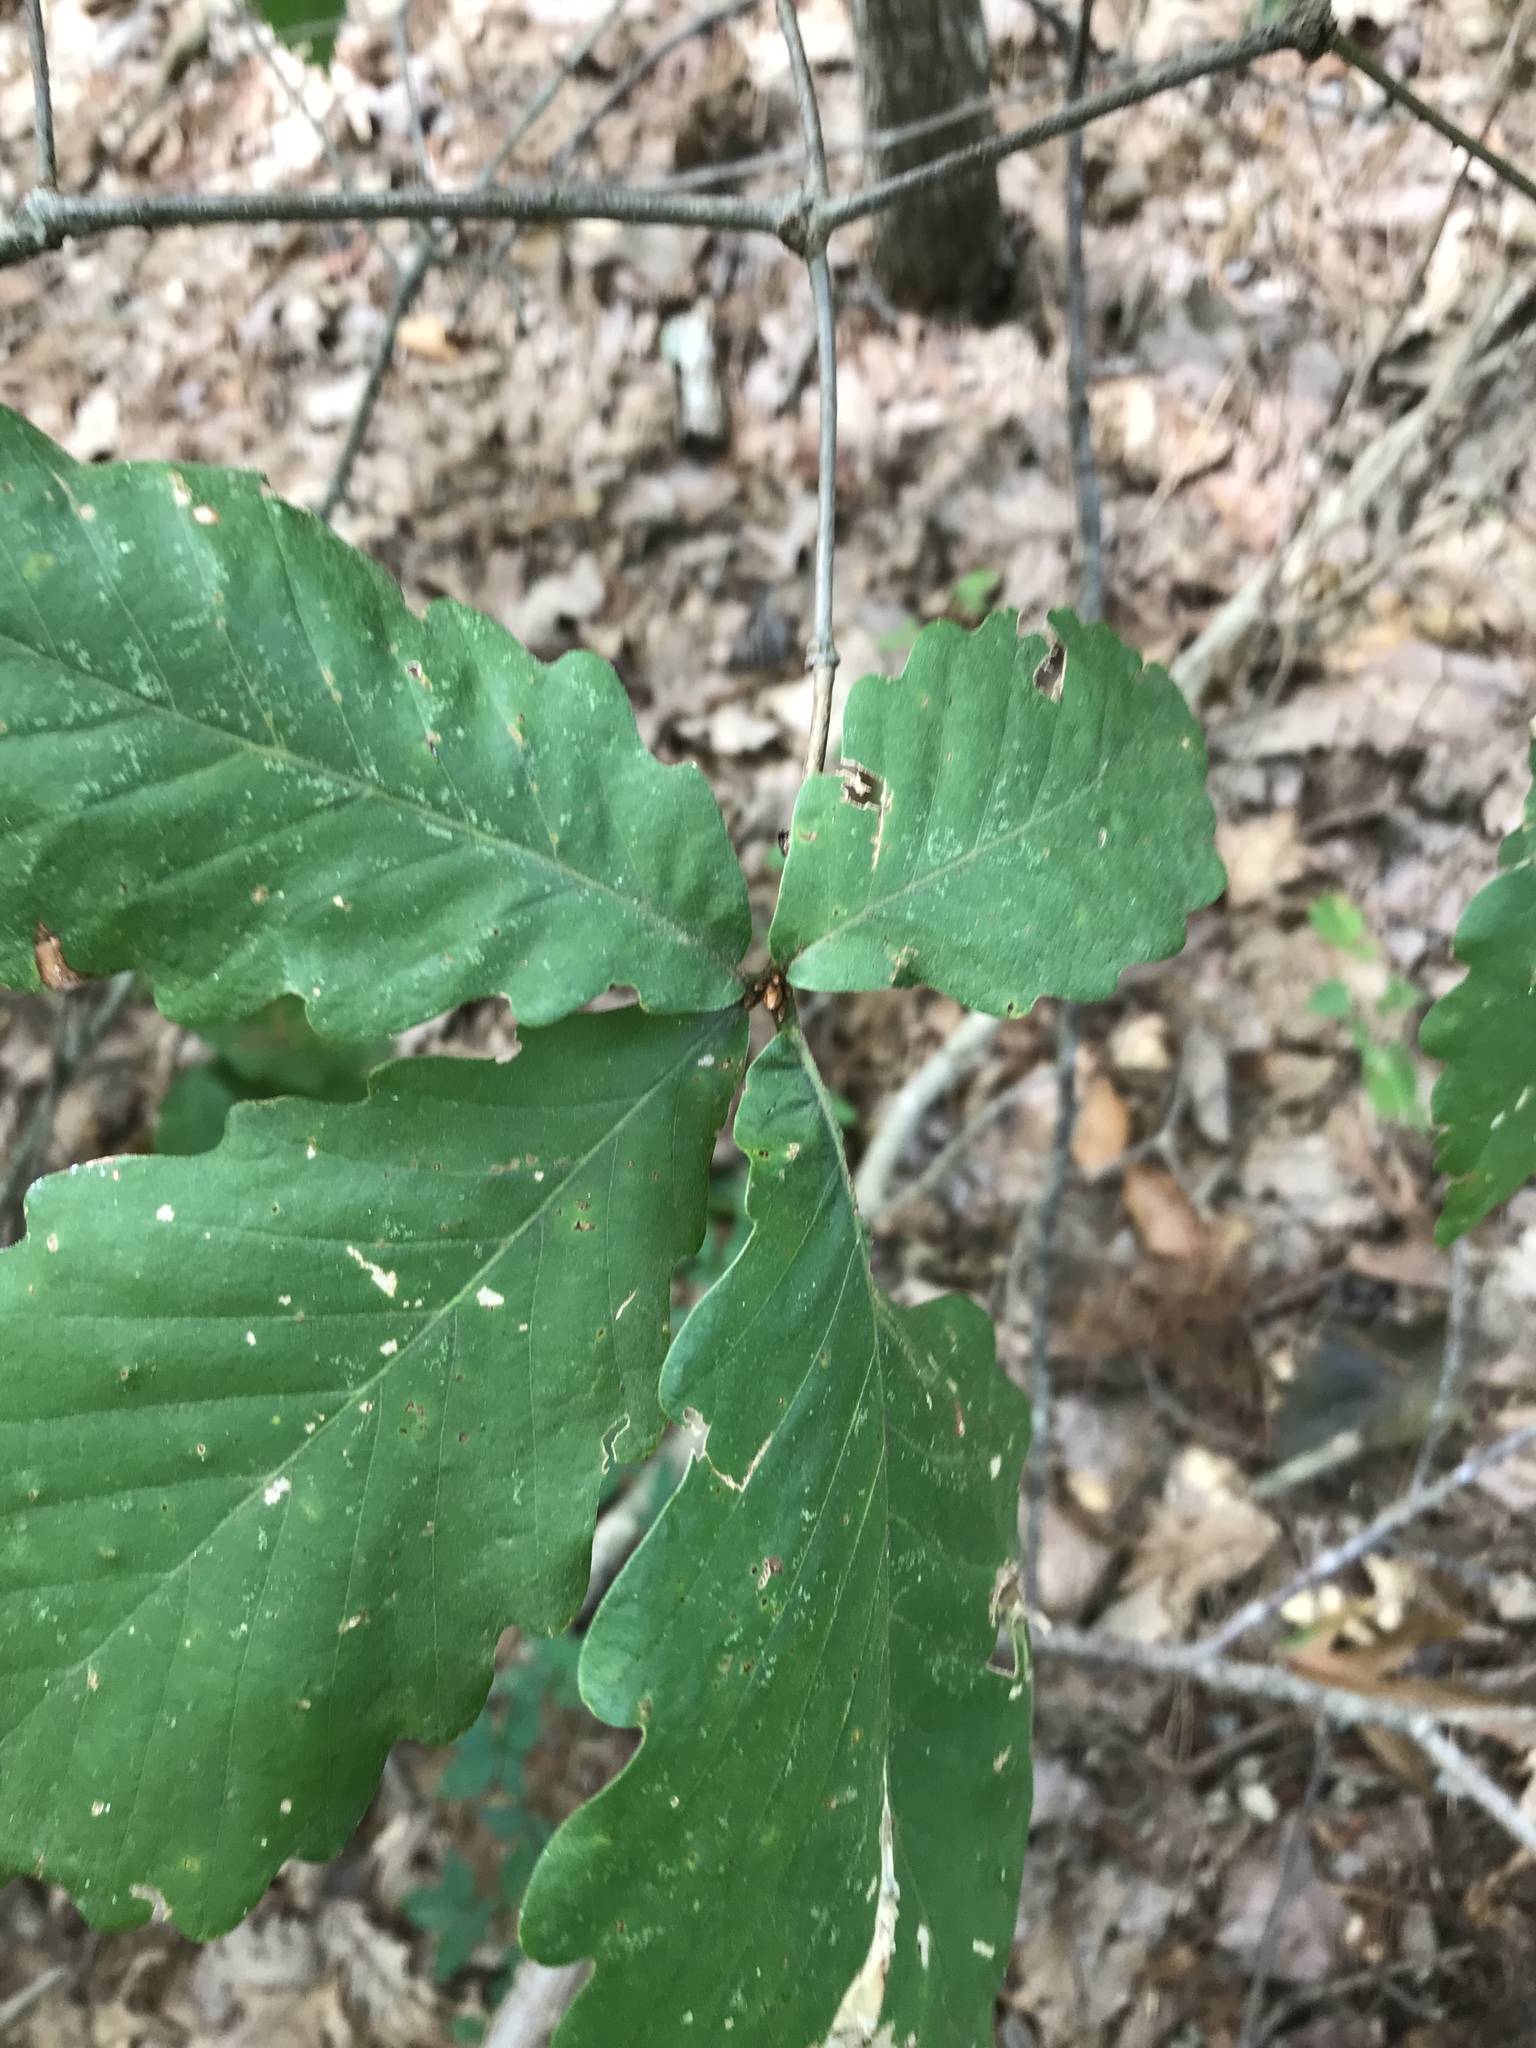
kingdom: Plantae
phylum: Tracheophyta
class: Magnoliopsida
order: Fagales
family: Fagaceae
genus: Quercus
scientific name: Quercus montana
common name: Chestnut oak
